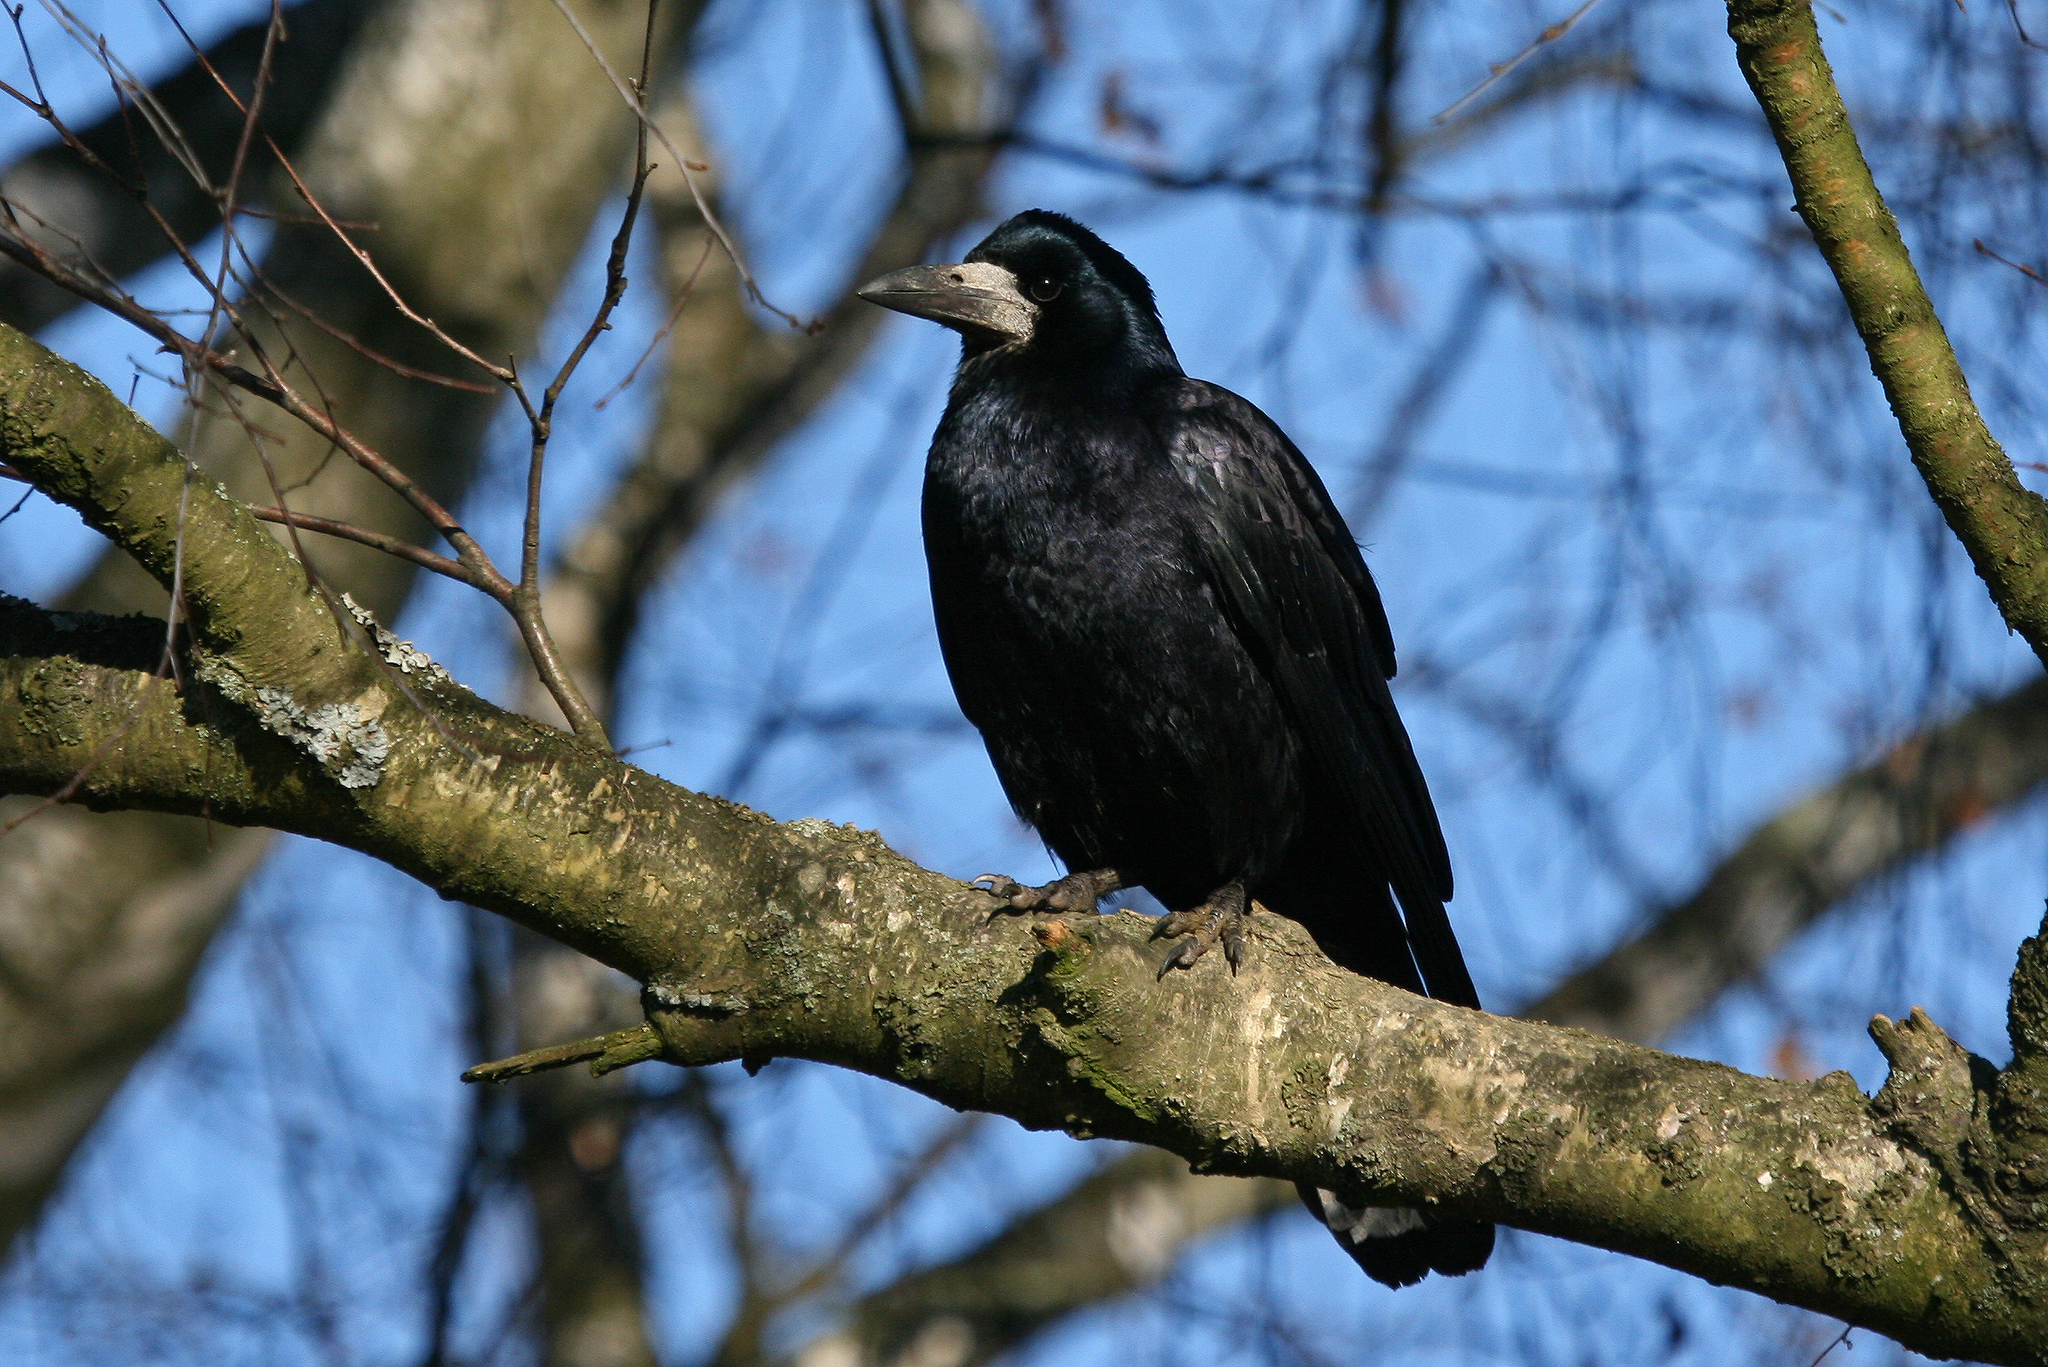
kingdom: Animalia
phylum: Chordata
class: Aves
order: Passeriformes
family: Corvidae
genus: Corvus
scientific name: Corvus frugilegus
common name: Rook
